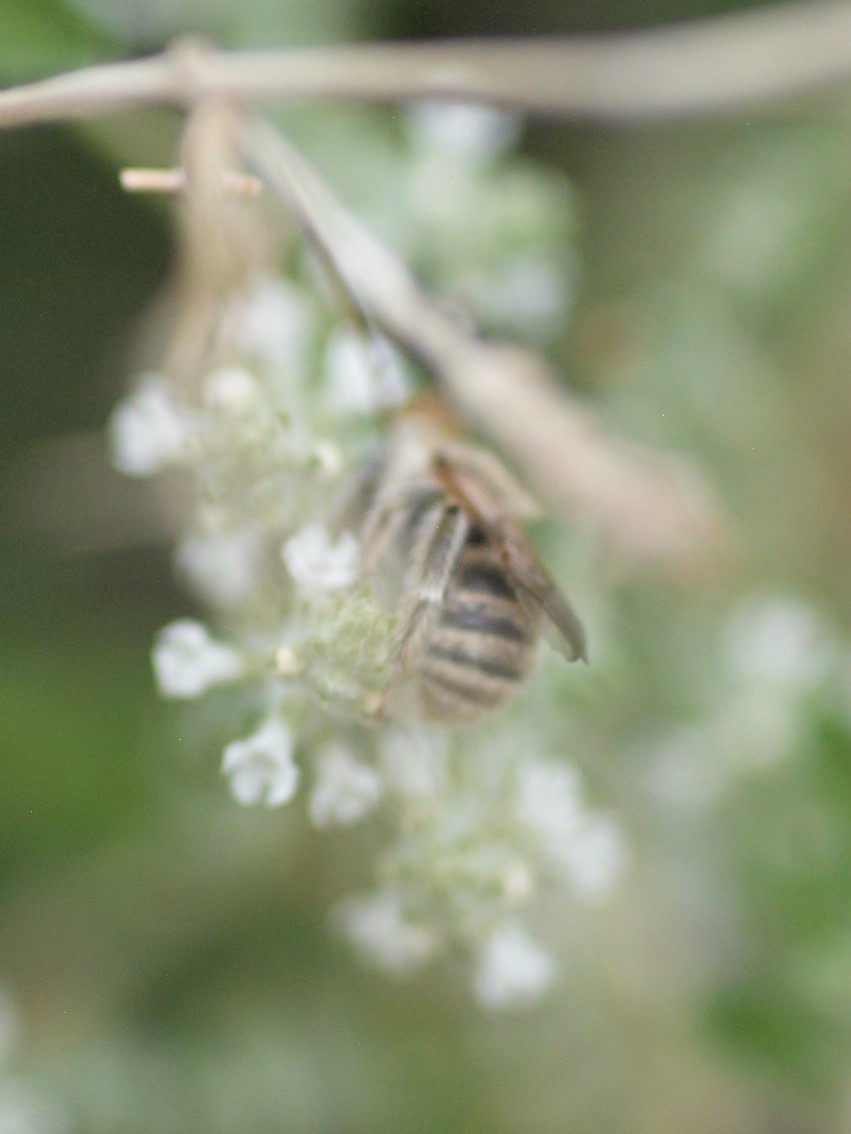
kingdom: Animalia
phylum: Arthropoda
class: Insecta
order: Hymenoptera
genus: Eumelissodes
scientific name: Eumelissodes
